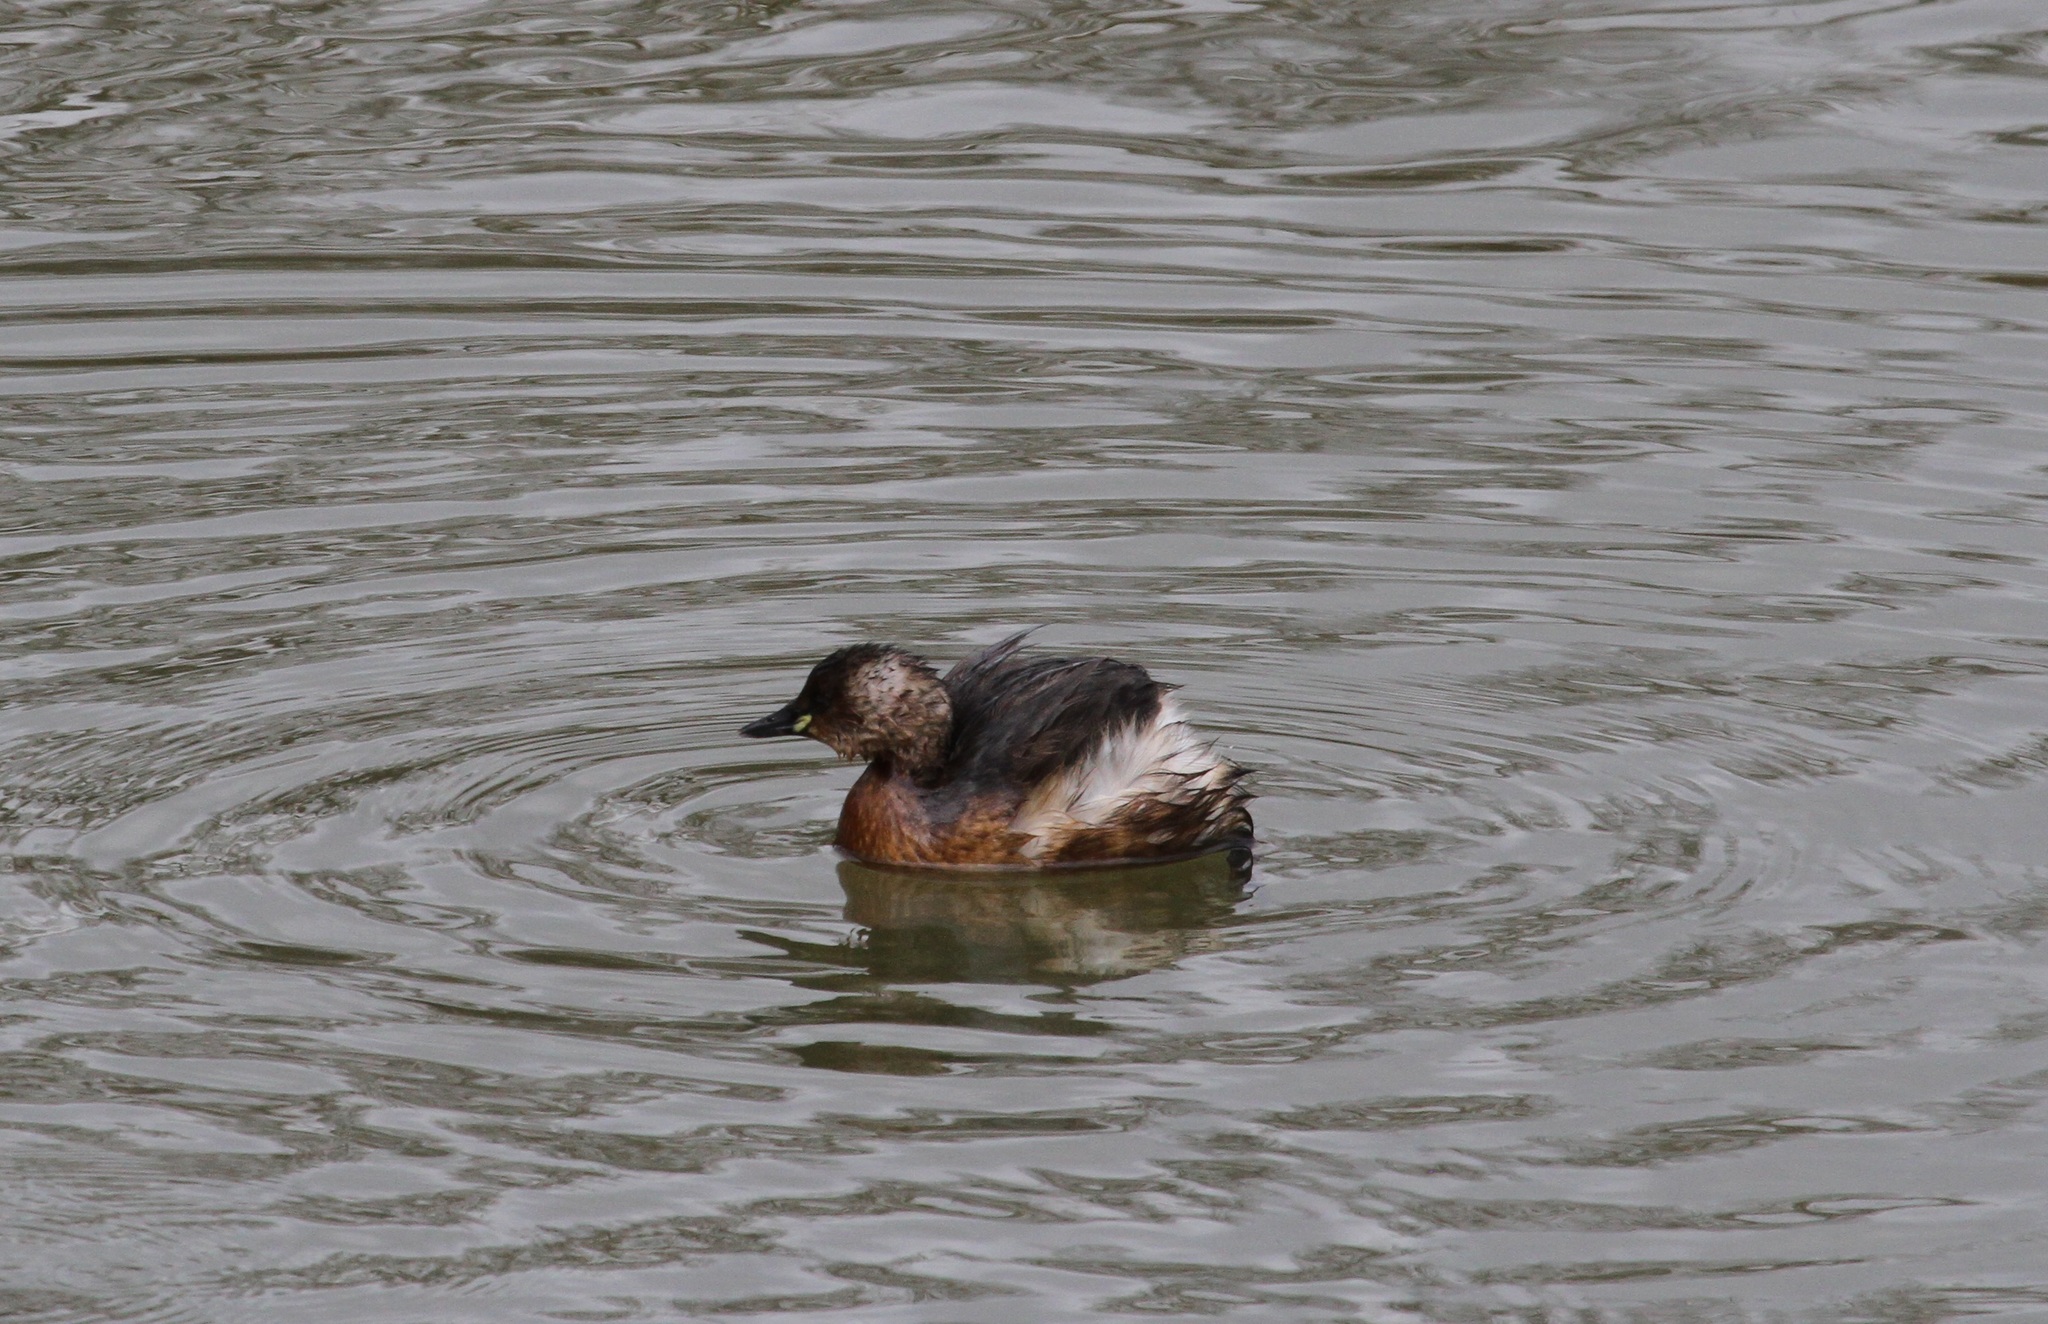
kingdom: Animalia
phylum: Chordata
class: Aves
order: Podicipediformes
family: Podicipedidae
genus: Tachybaptus
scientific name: Tachybaptus ruficollis
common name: Little grebe
